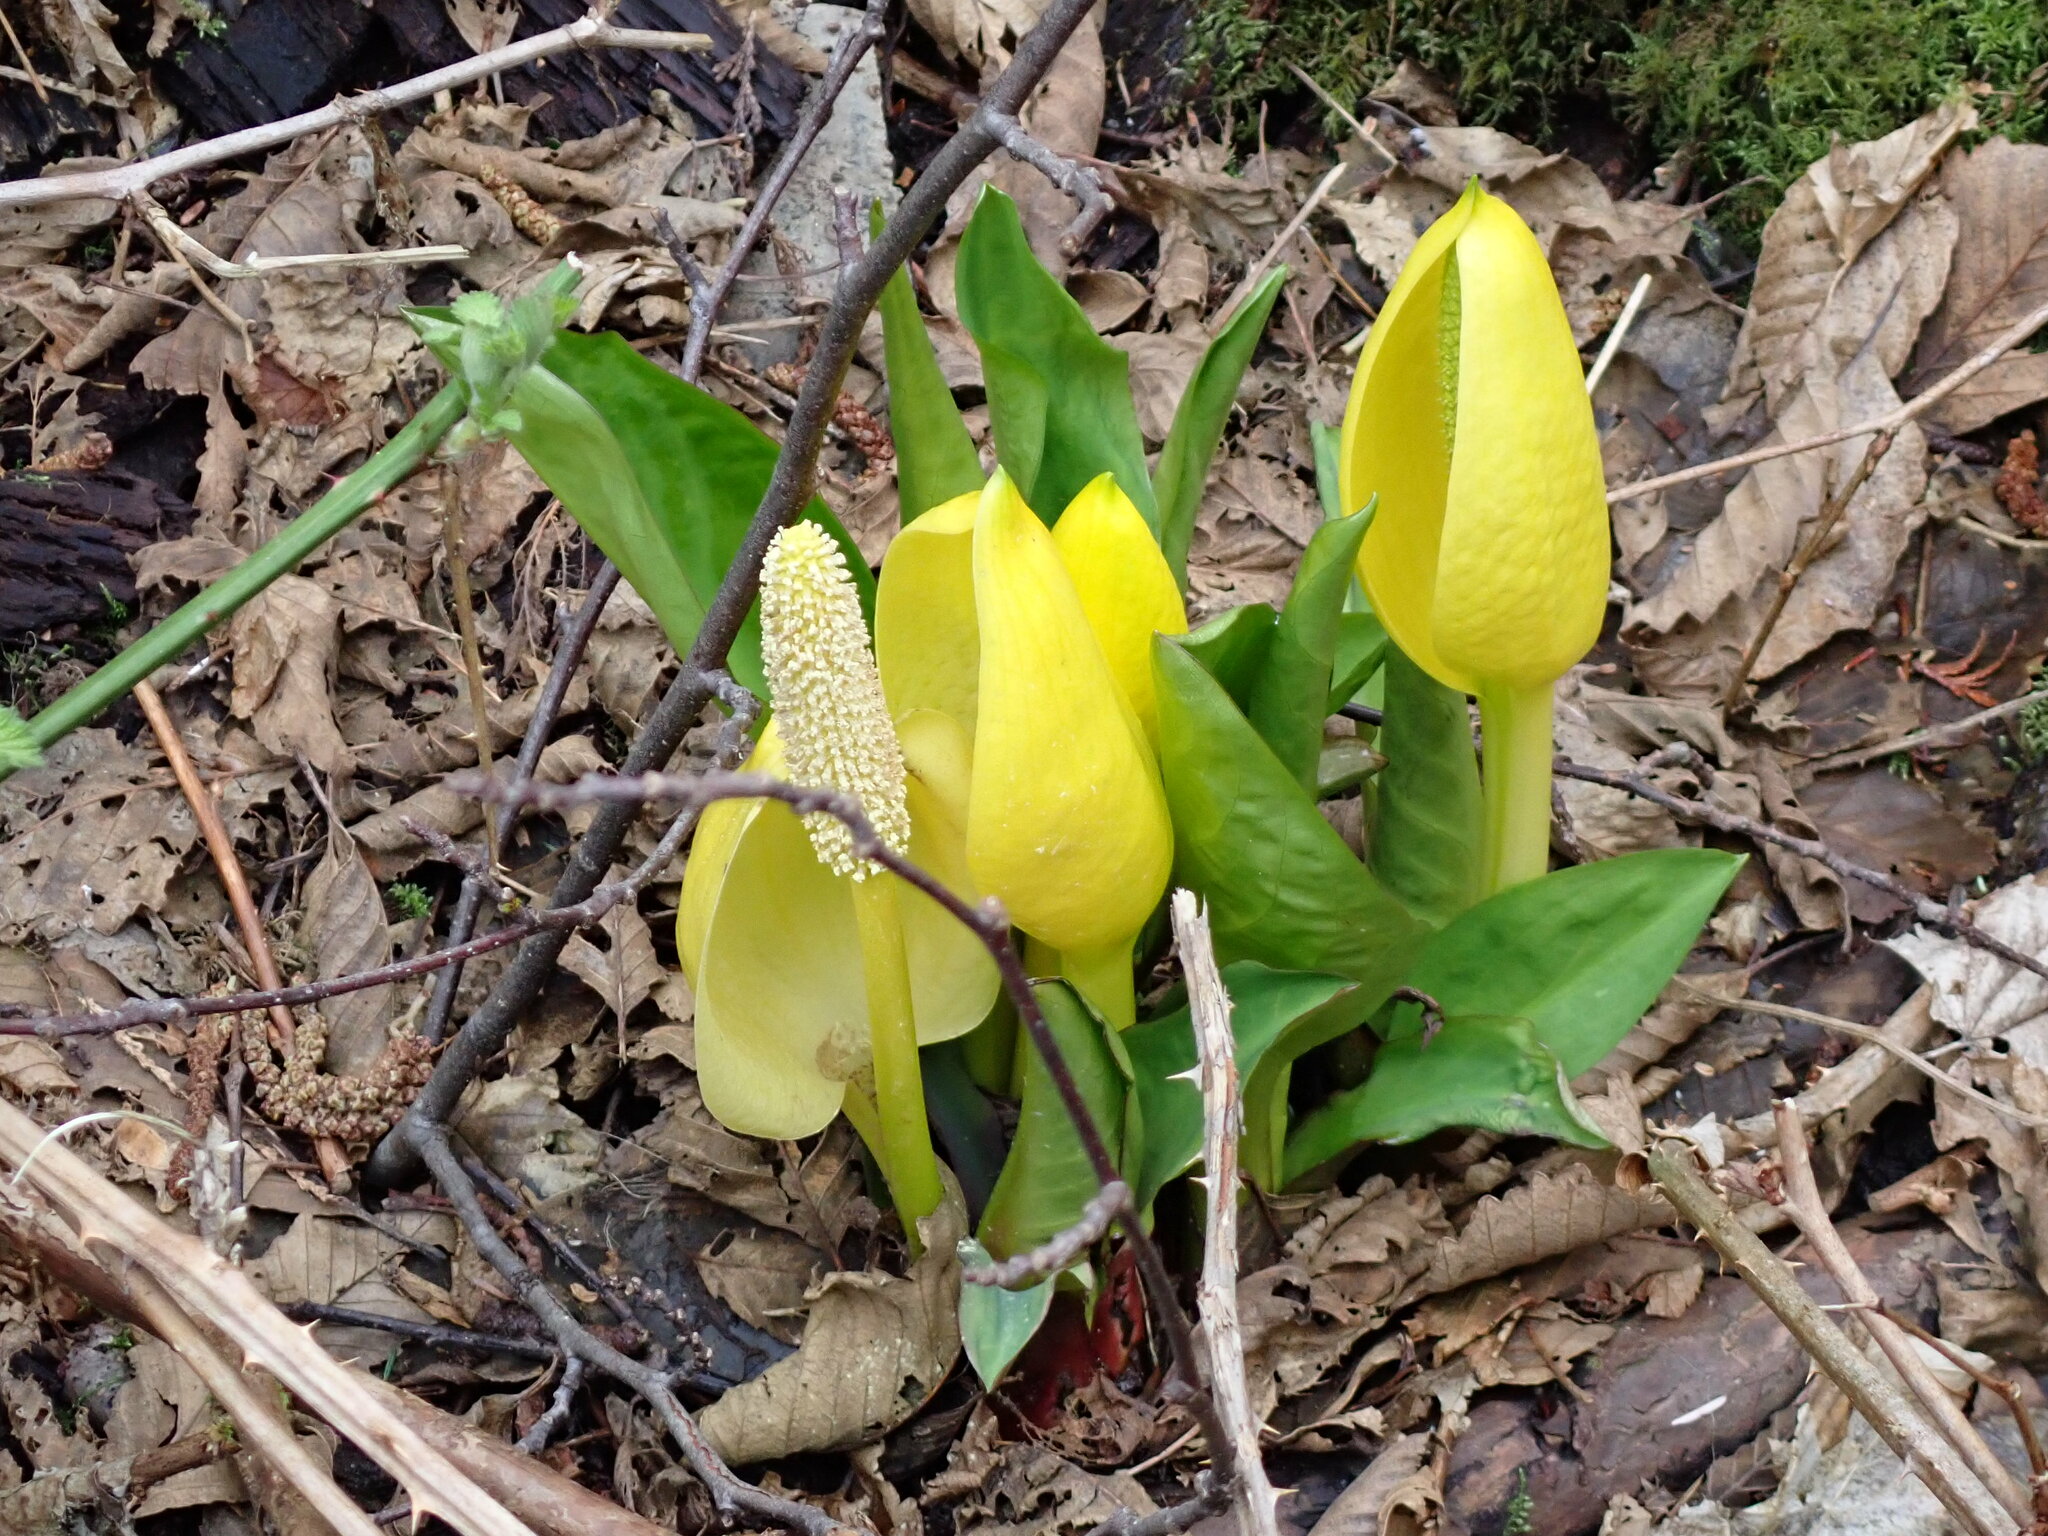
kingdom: Plantae
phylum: Tracheophyta
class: Liliopsida
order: Alismatales
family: Araceae
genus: Lysichiton
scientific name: Lysichiton americanus
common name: American skunk cabbage
